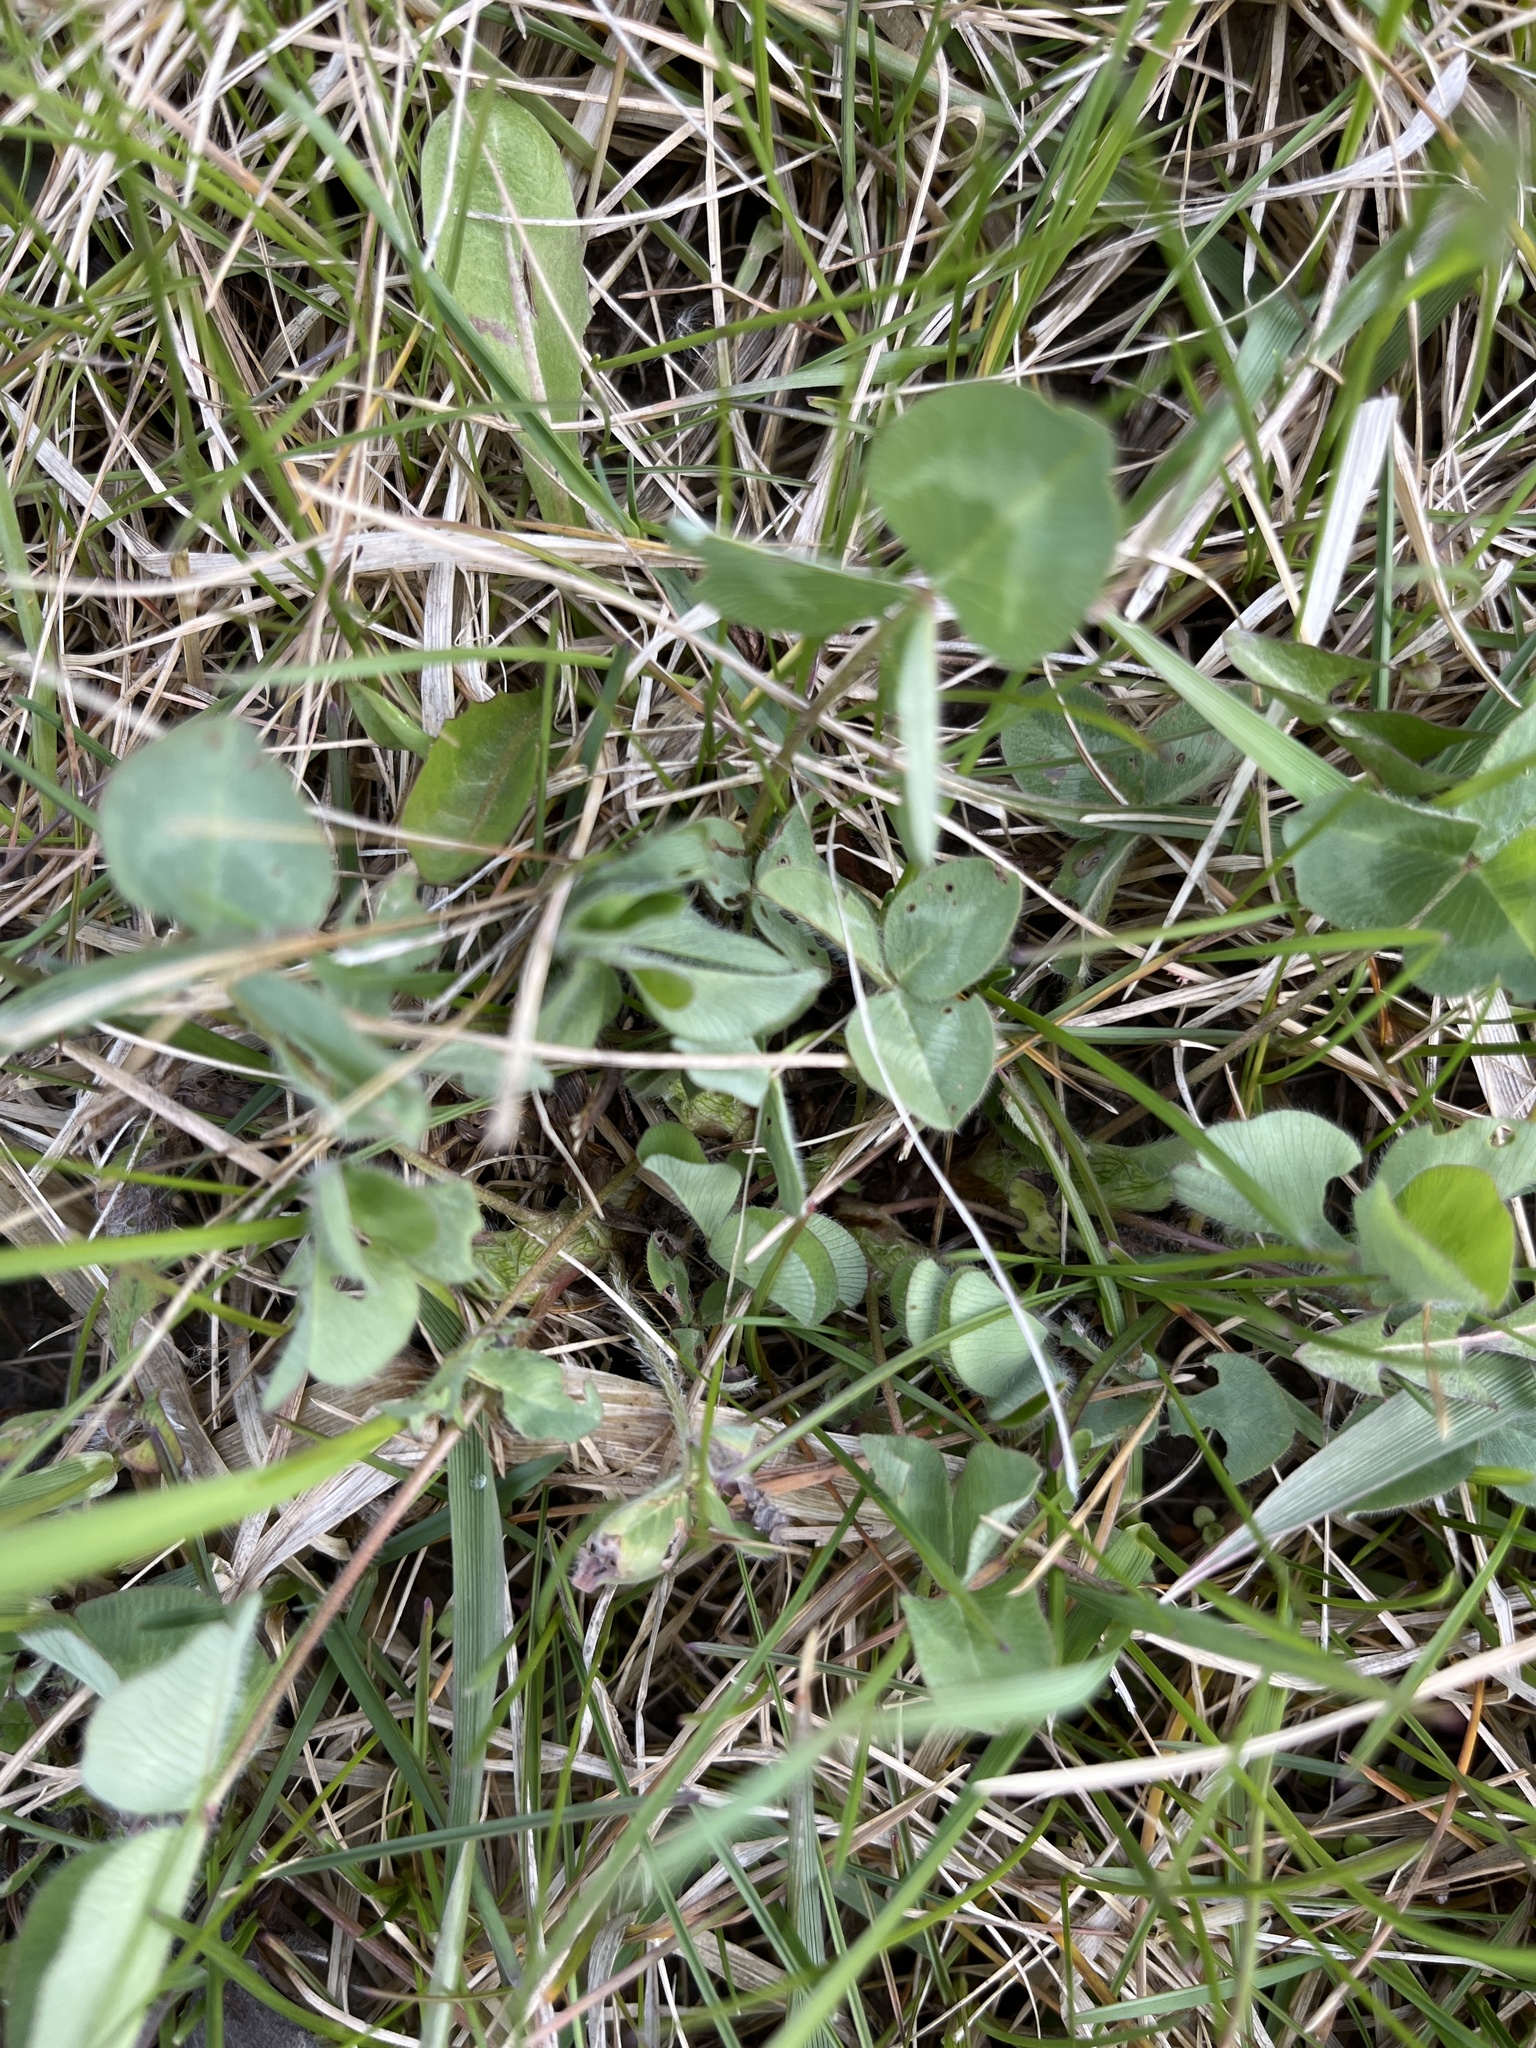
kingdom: Plantae
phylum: Tracheophyta
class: Magnoliopsida
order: Fabales
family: Fabaceae
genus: Trifolium
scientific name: Trifolium repens
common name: White clover
